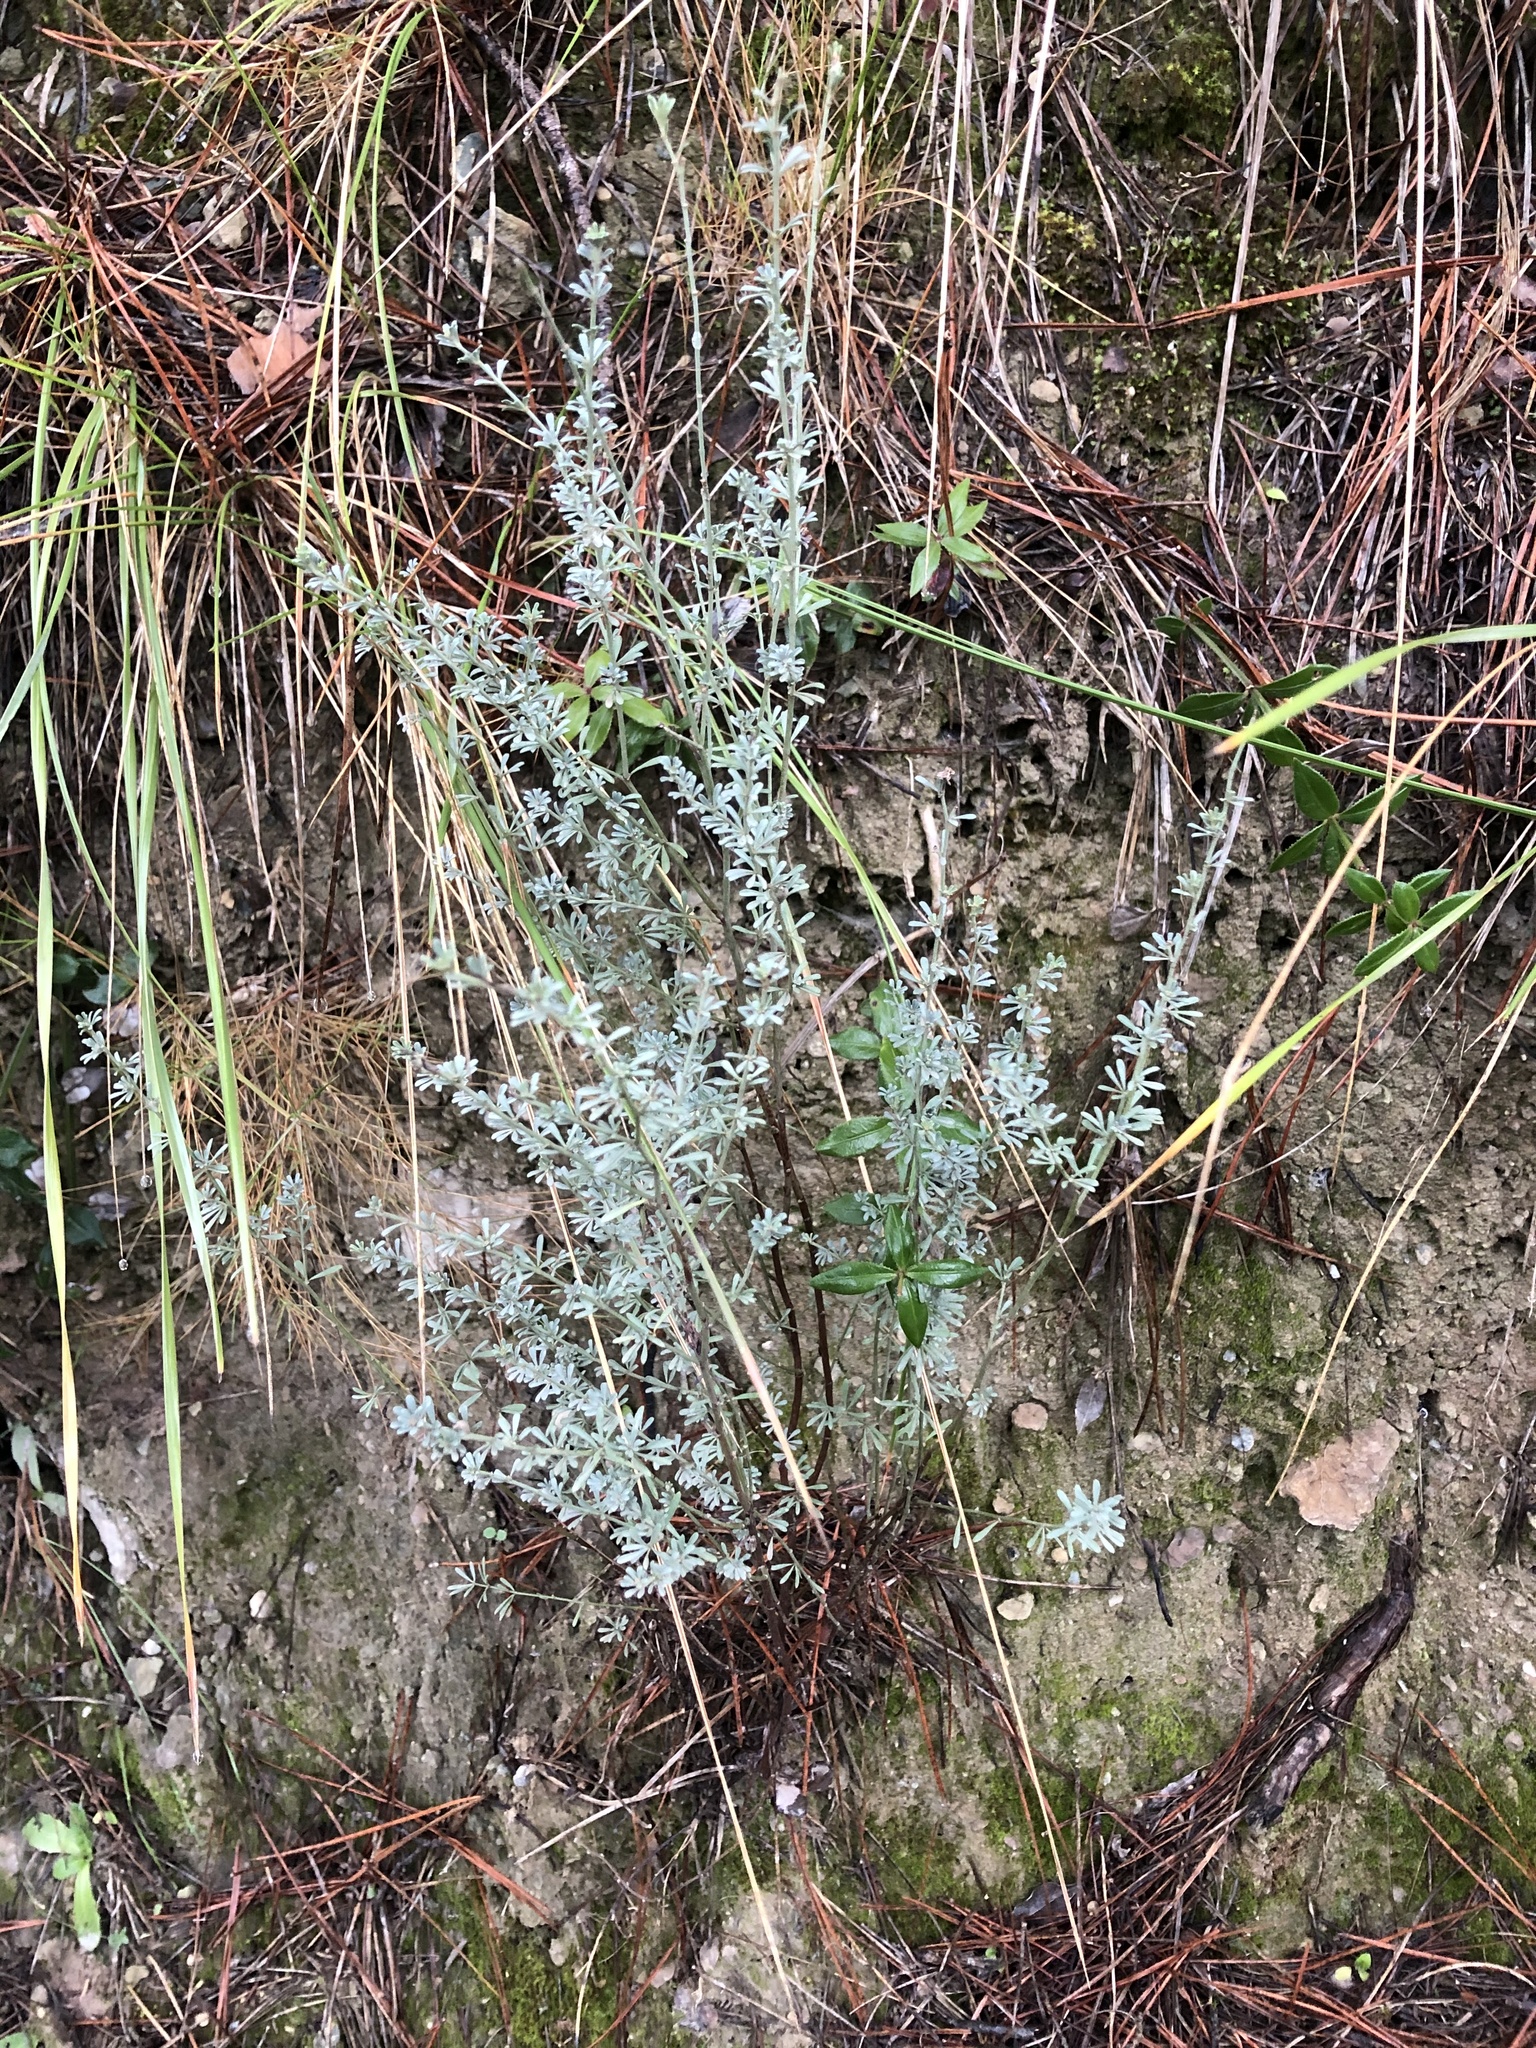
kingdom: Plantae
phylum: Tracheophyta
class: Magnoliopsida
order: Fabales
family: Fabaceae
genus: Lotus
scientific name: Lotus dorycnium
